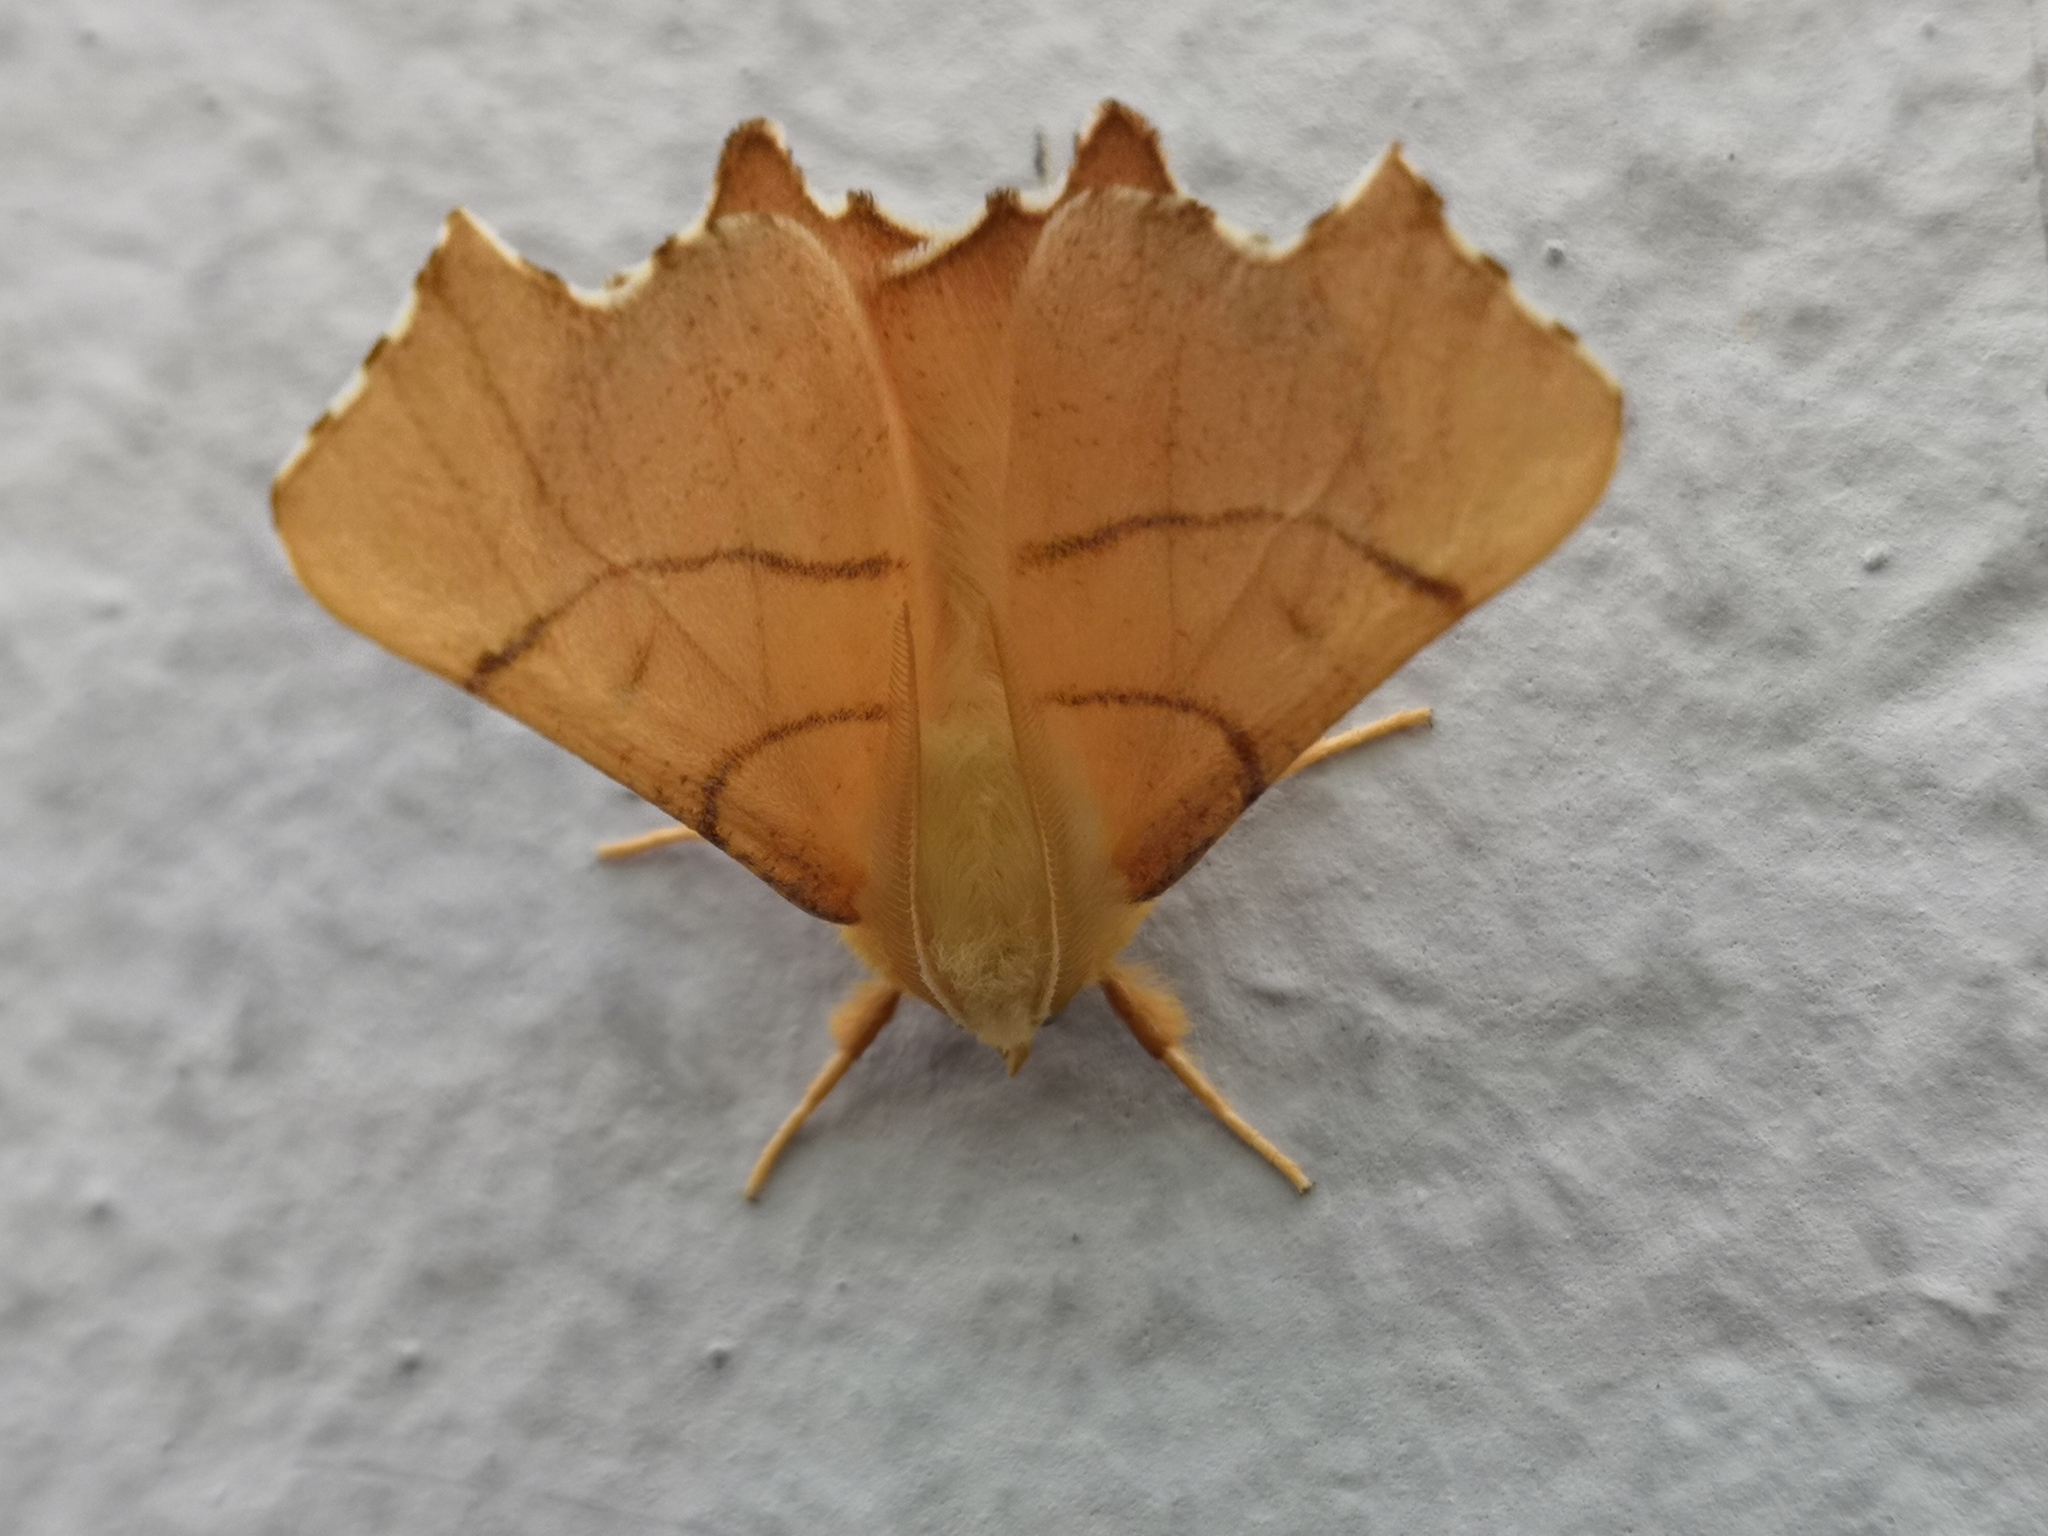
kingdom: Animalia
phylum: Arthropoda
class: Insecta
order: Lepidoptera
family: Geometridae
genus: Ennomos
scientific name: Ennomos erosaria
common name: September thorn
